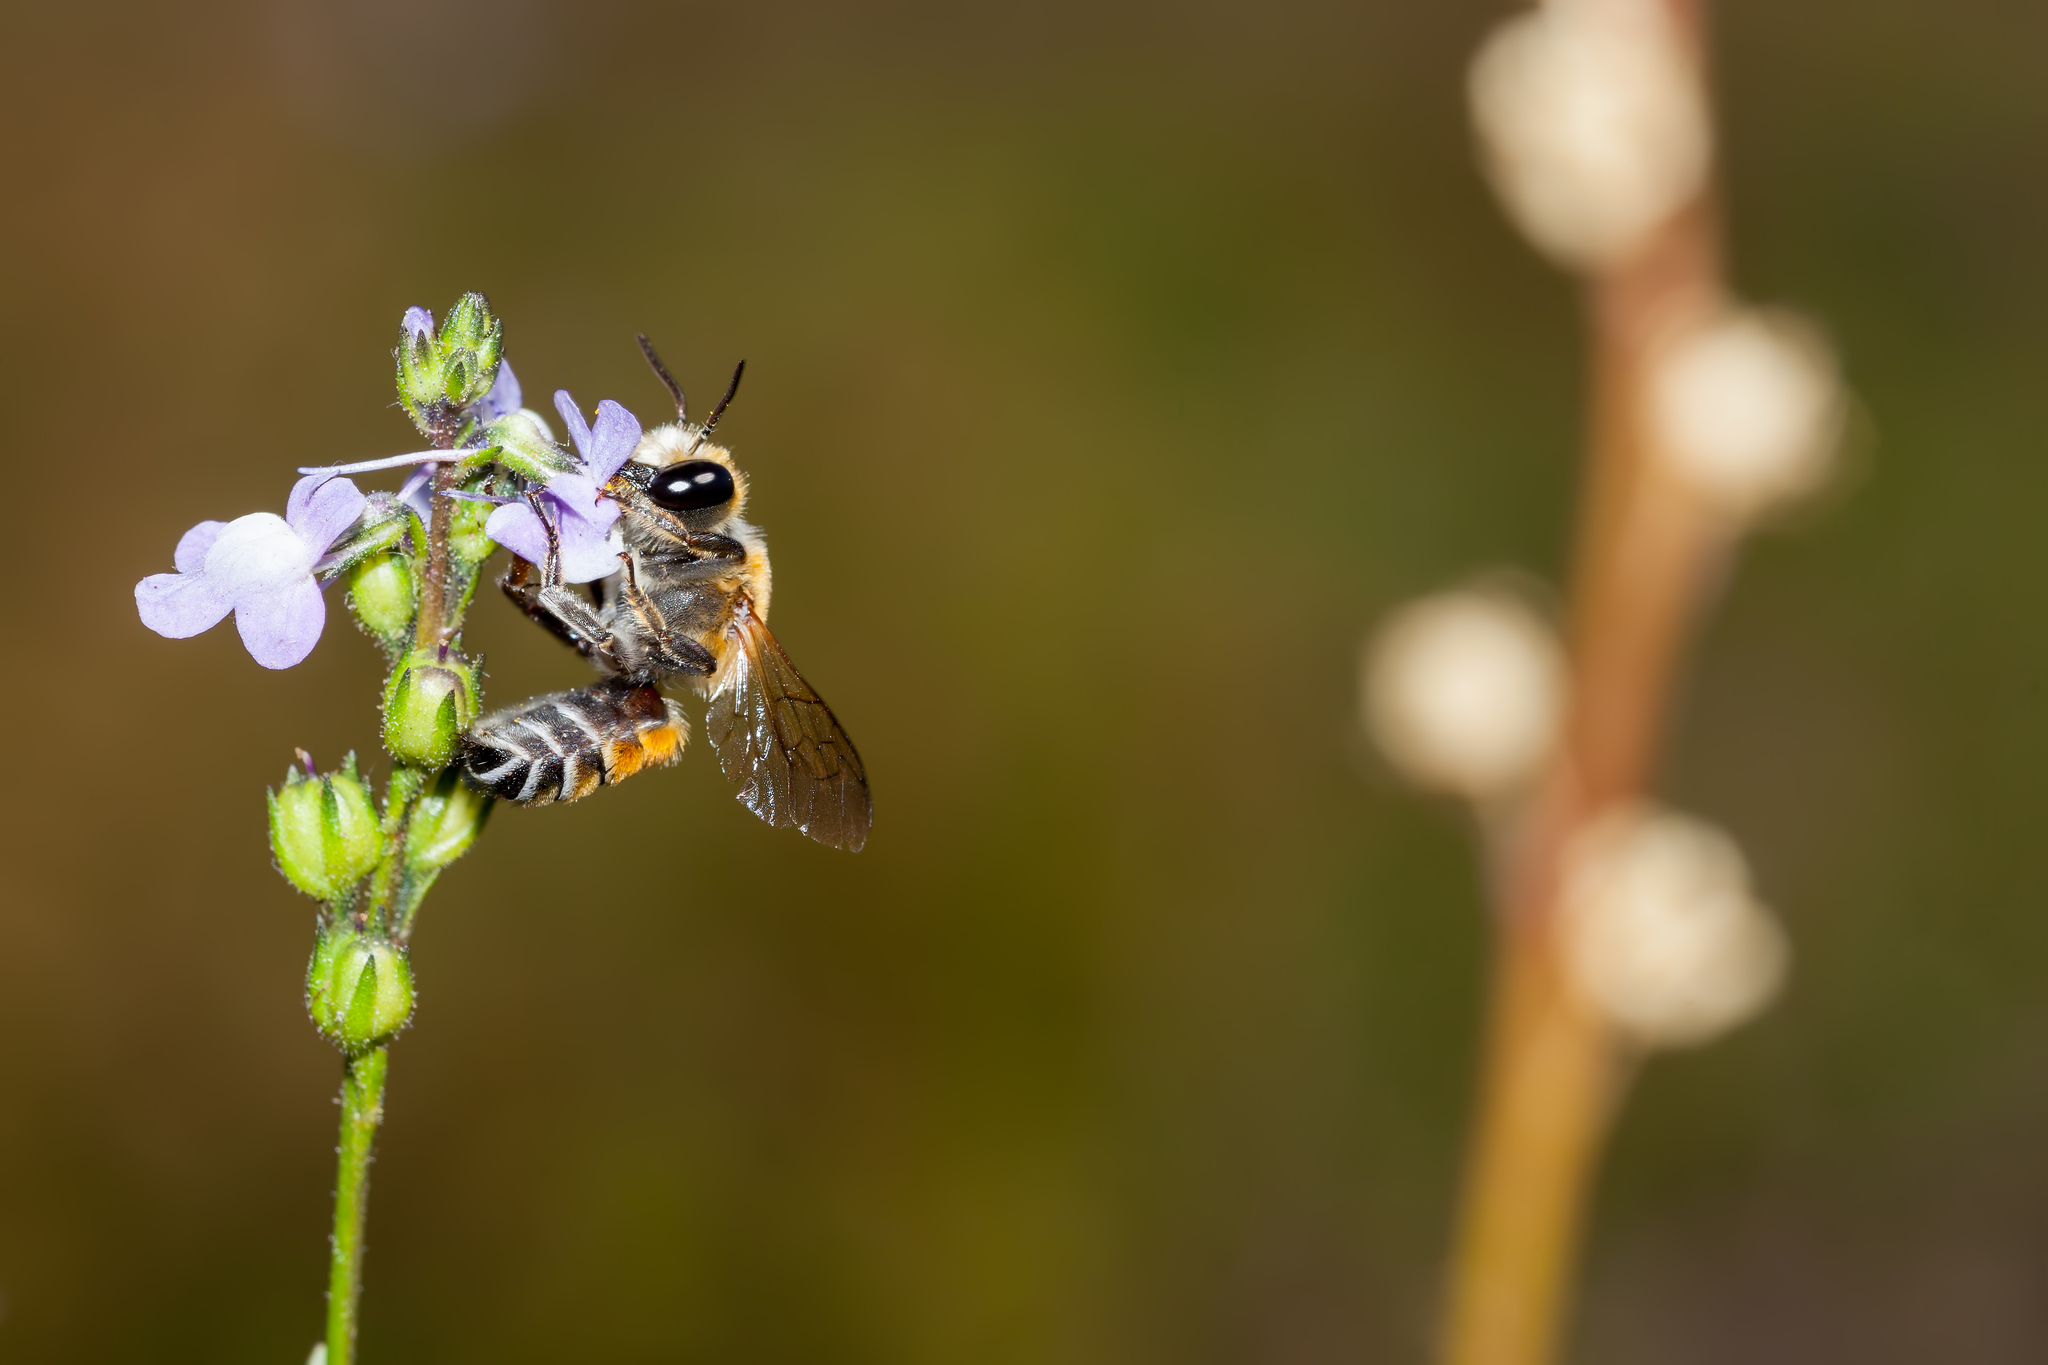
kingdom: Animalia
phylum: Arthropoda
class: Insecta
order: Hymenoptera
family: Megachilidae
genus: Megachile
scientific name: Megachile lanata
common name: Wooly wall bee
